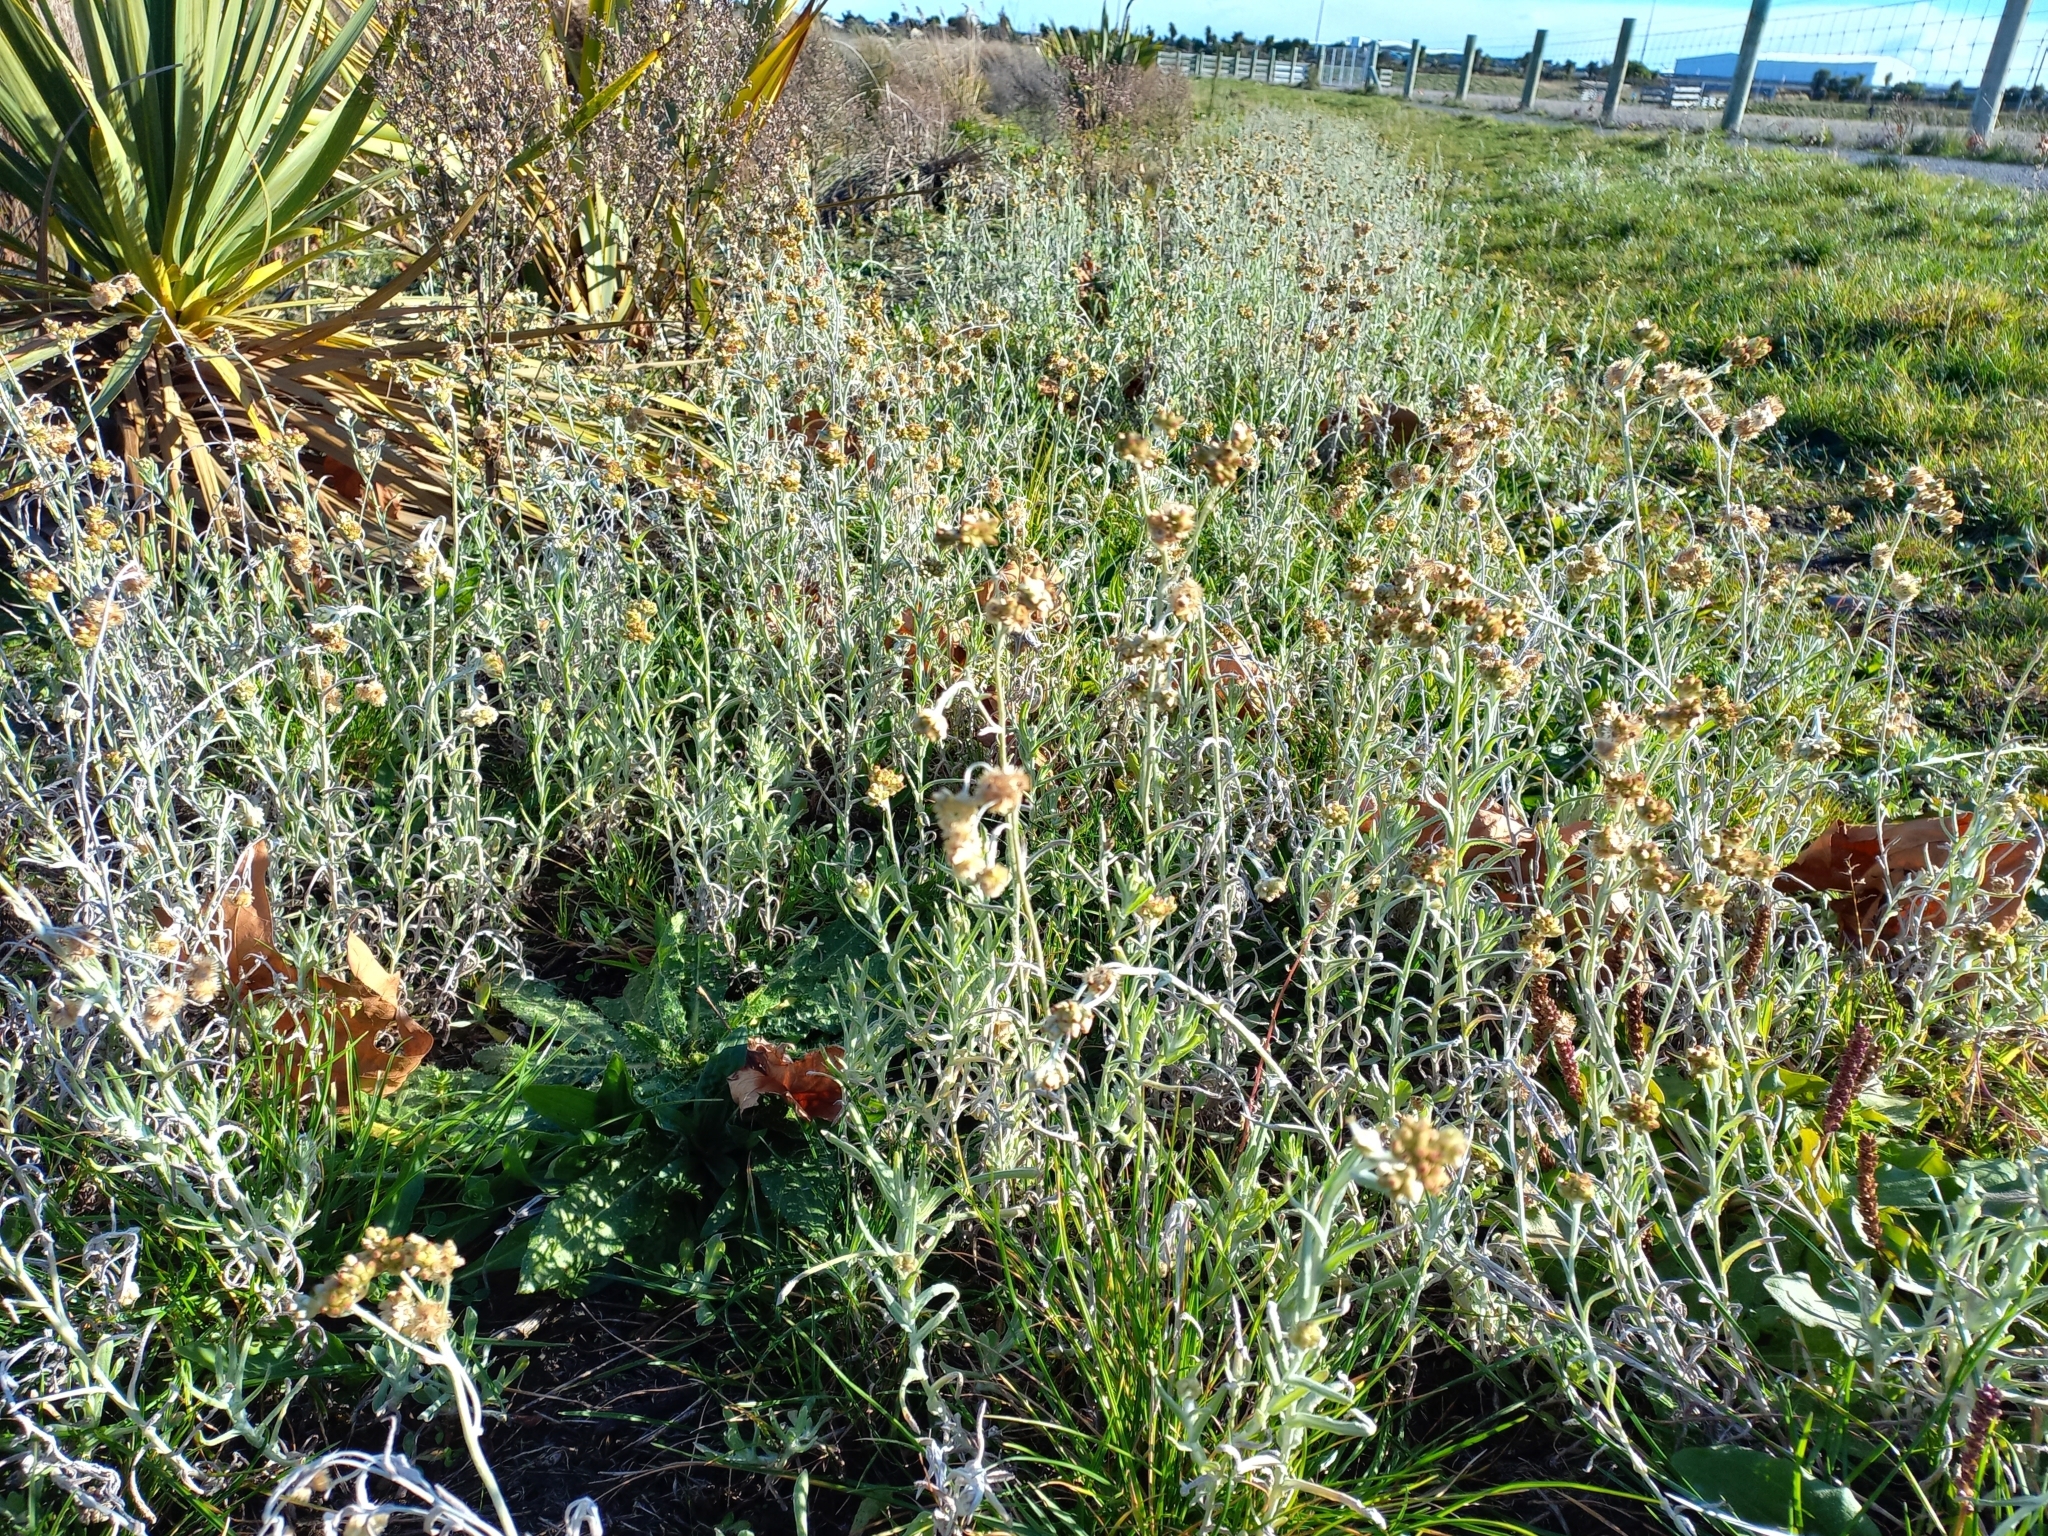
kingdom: Plantae
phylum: Tracheophyta
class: Magnoliopsida
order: Asterales
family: Asteraceae
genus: Helichrysum
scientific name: Helichrysum luteoalbum
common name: Daisy
